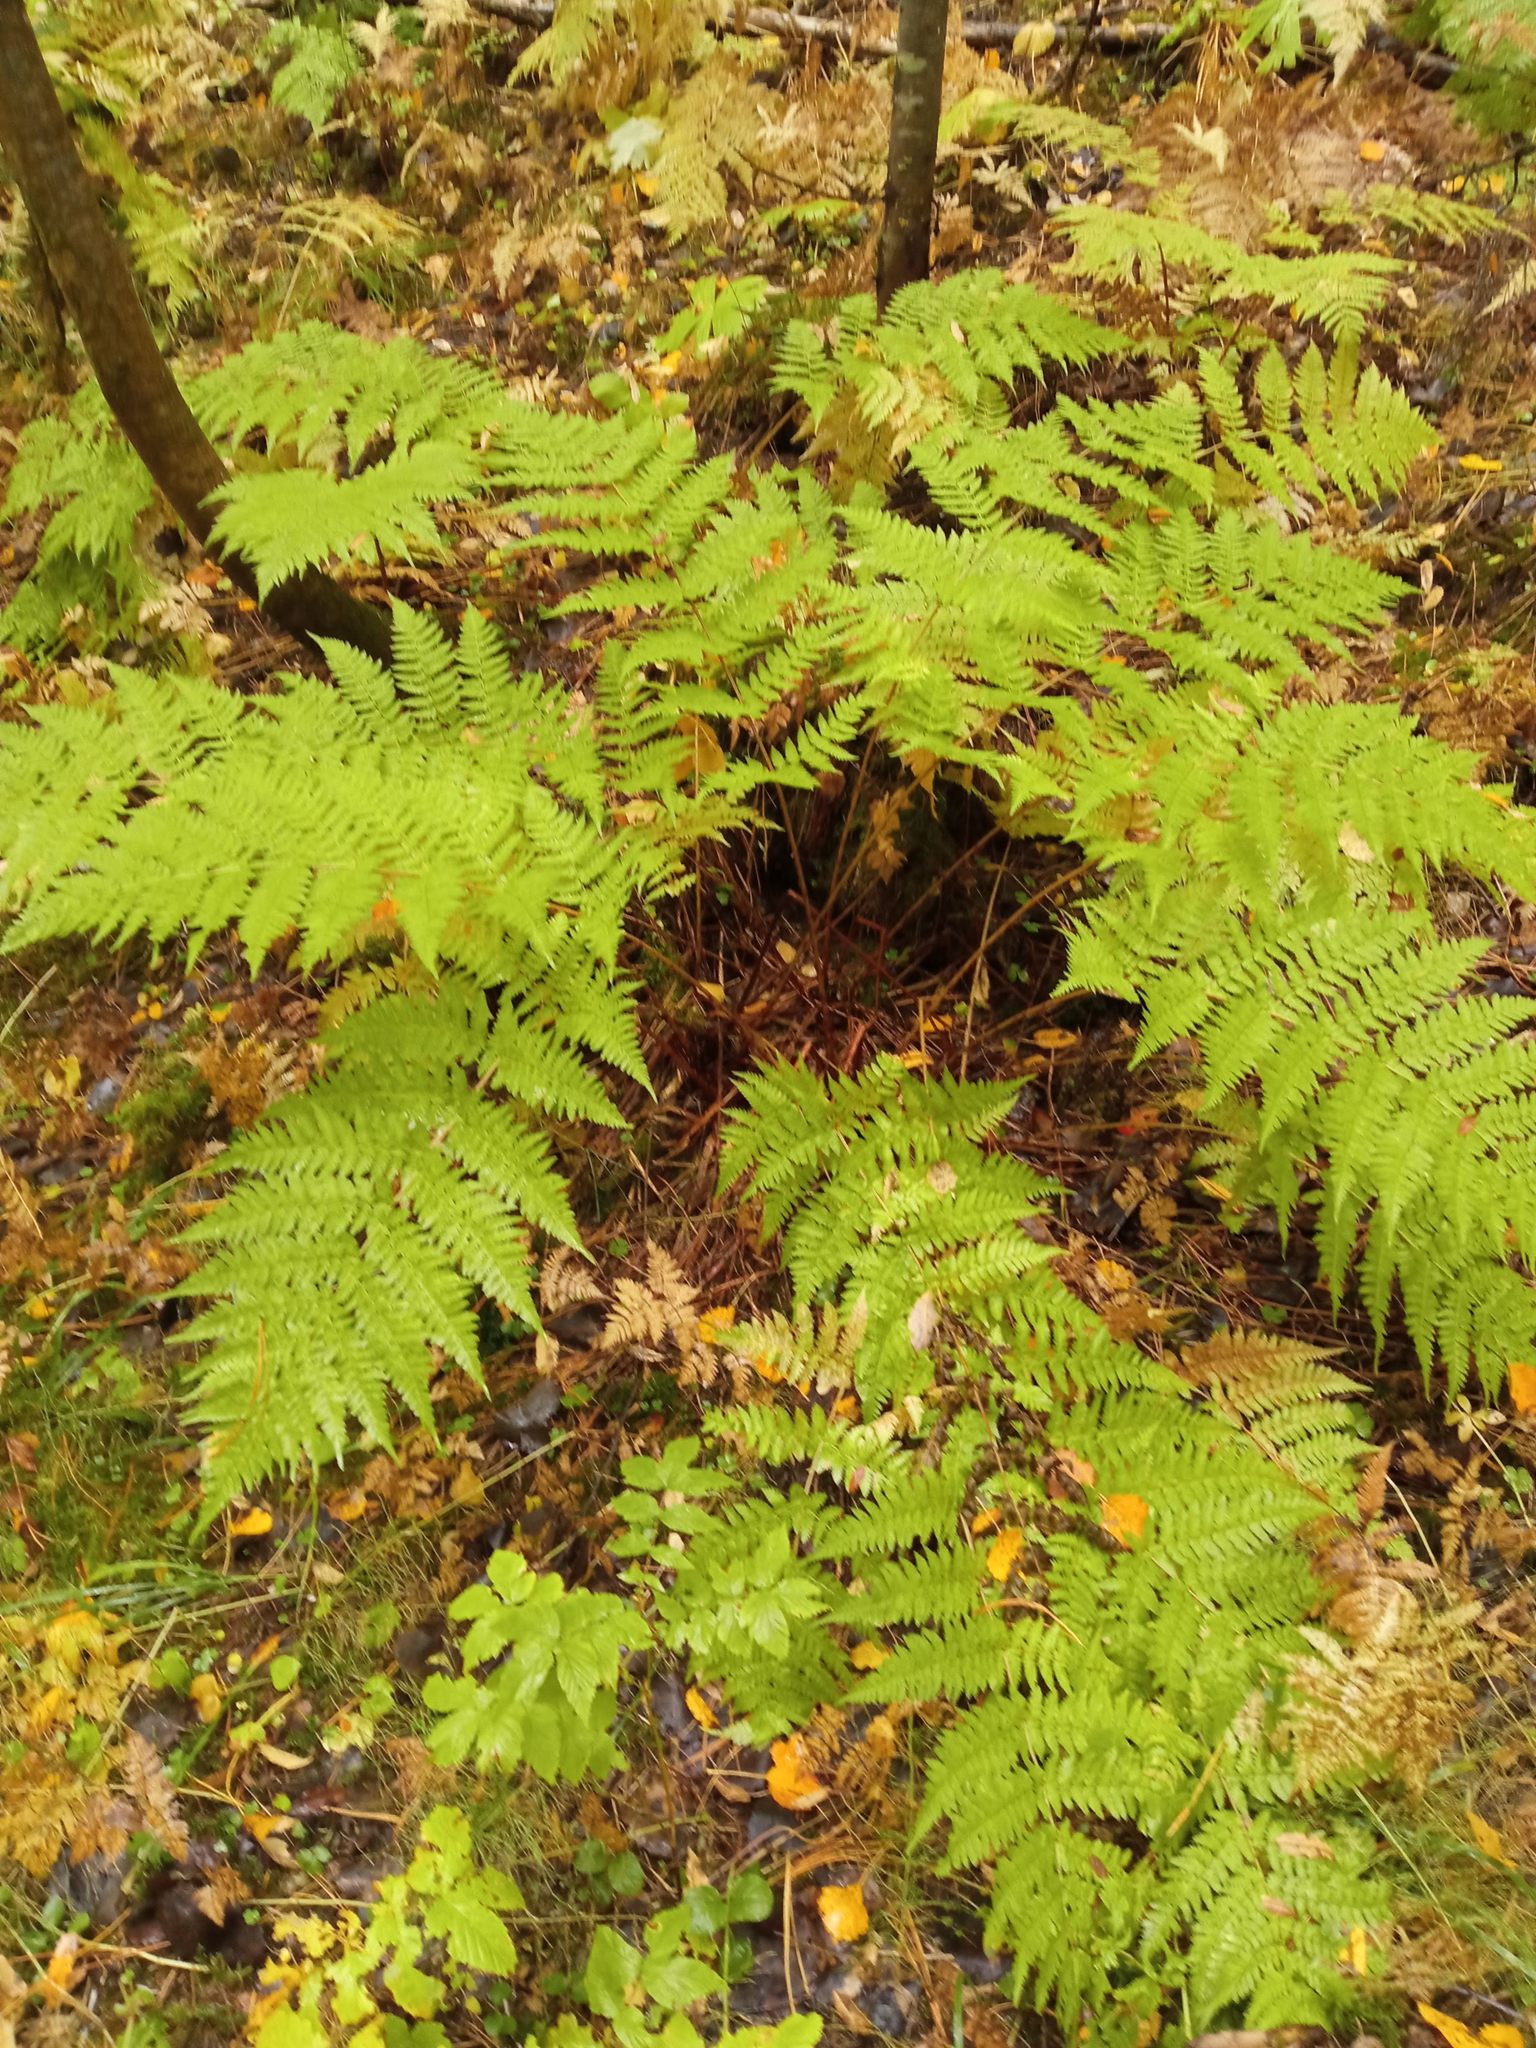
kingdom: Plantae
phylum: Tracheophyta
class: Polypodiopsida
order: Polypodiales
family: Dryopteridaceae
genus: Dryopteris
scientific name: Dryopteris expansa
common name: Northern buckler fern
